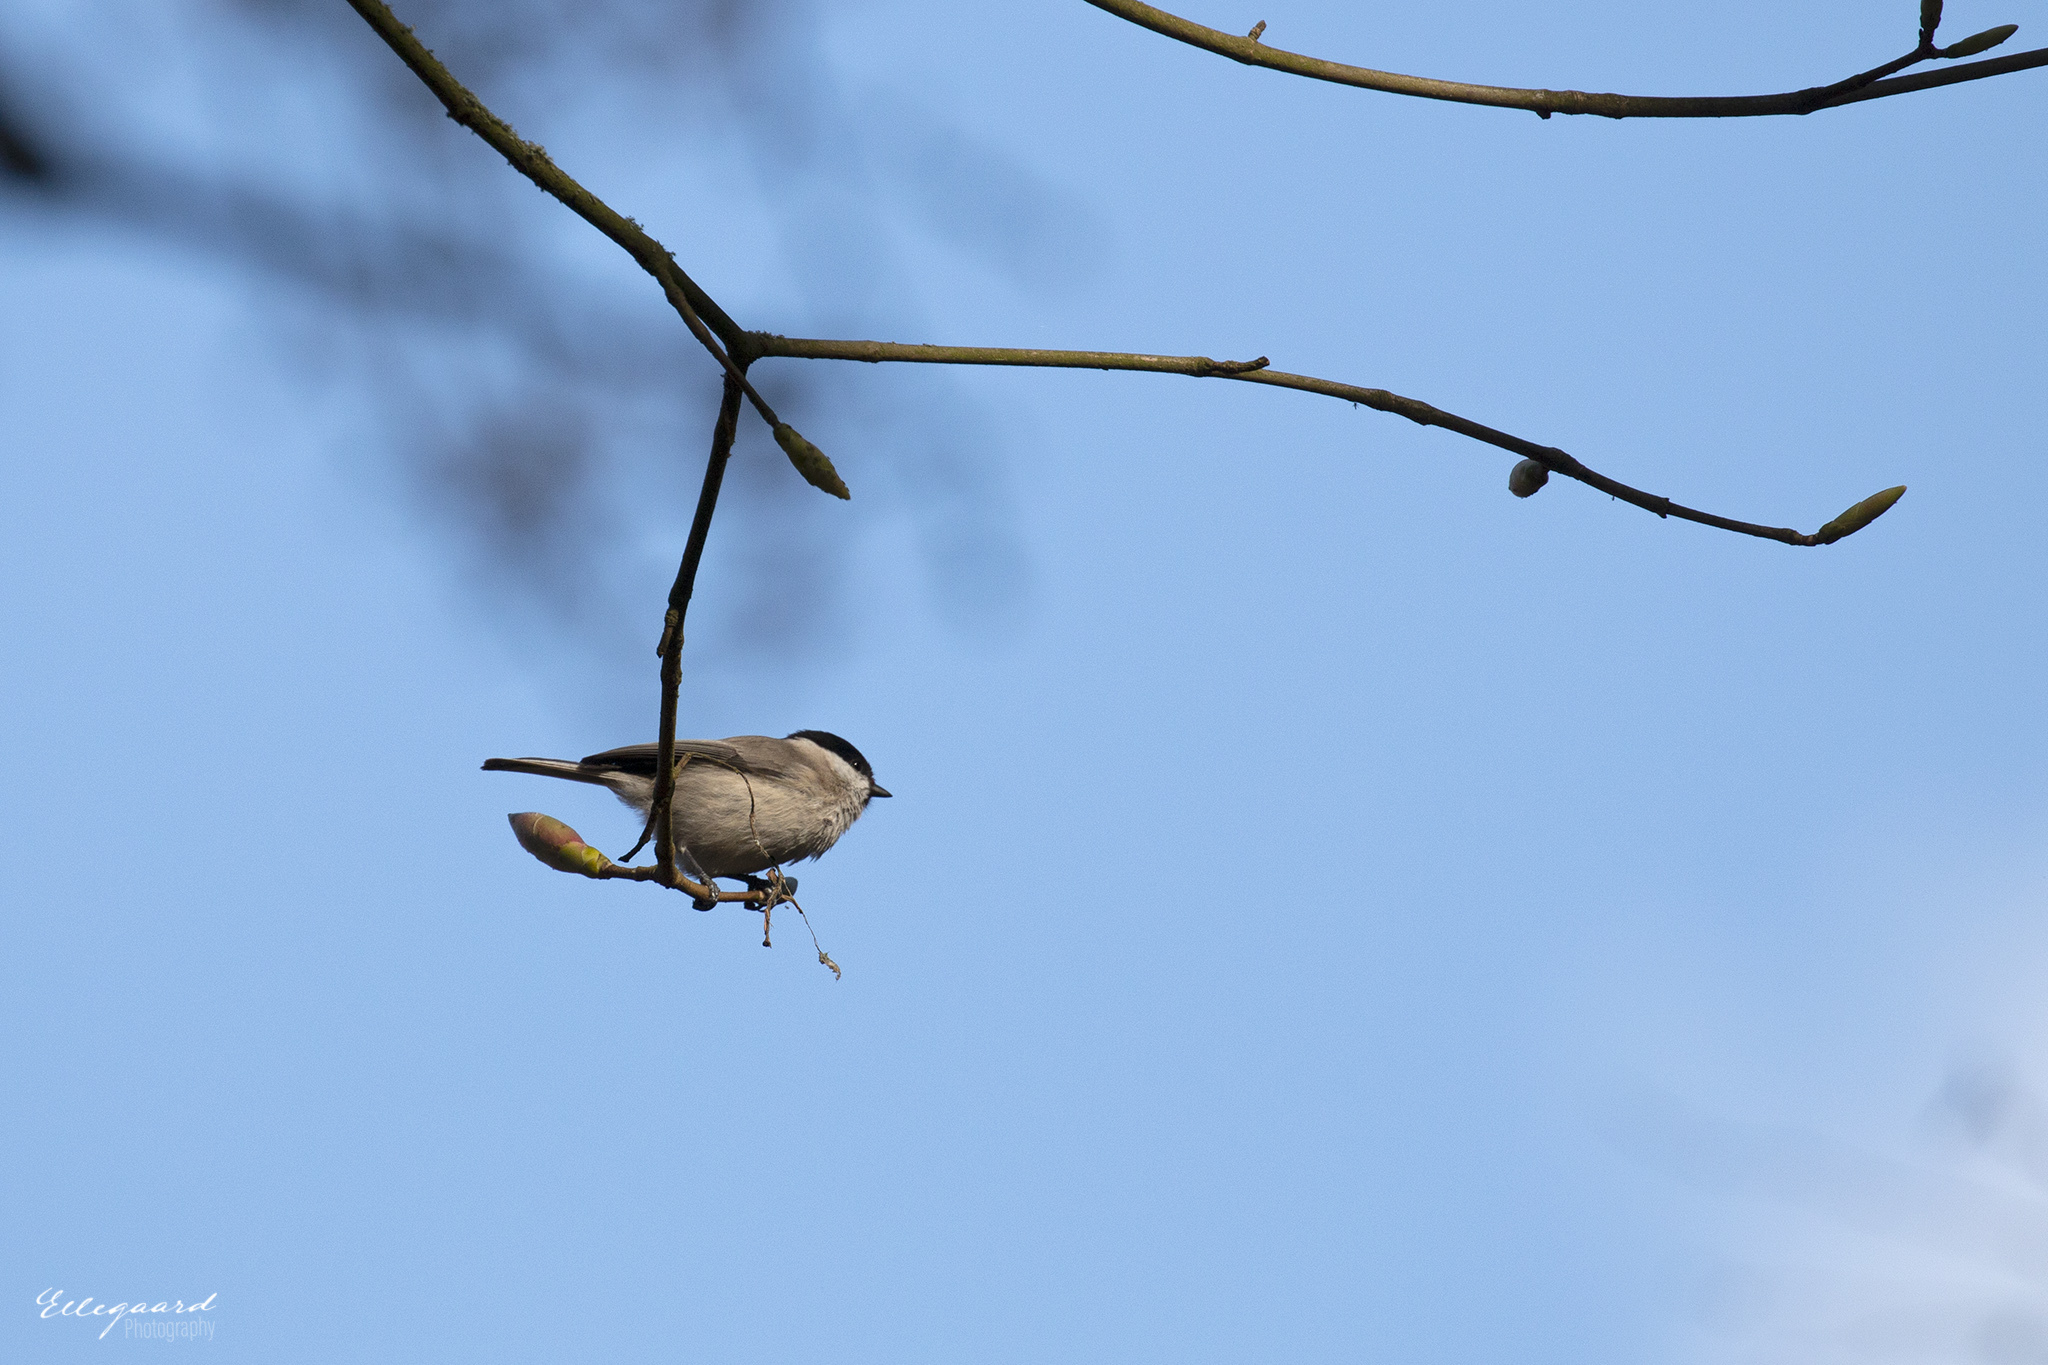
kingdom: Animalia
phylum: Chordata
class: Aves
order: Passeriformes
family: Paridae
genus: Poecile
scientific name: Poecile palustris
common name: Marsh tit
